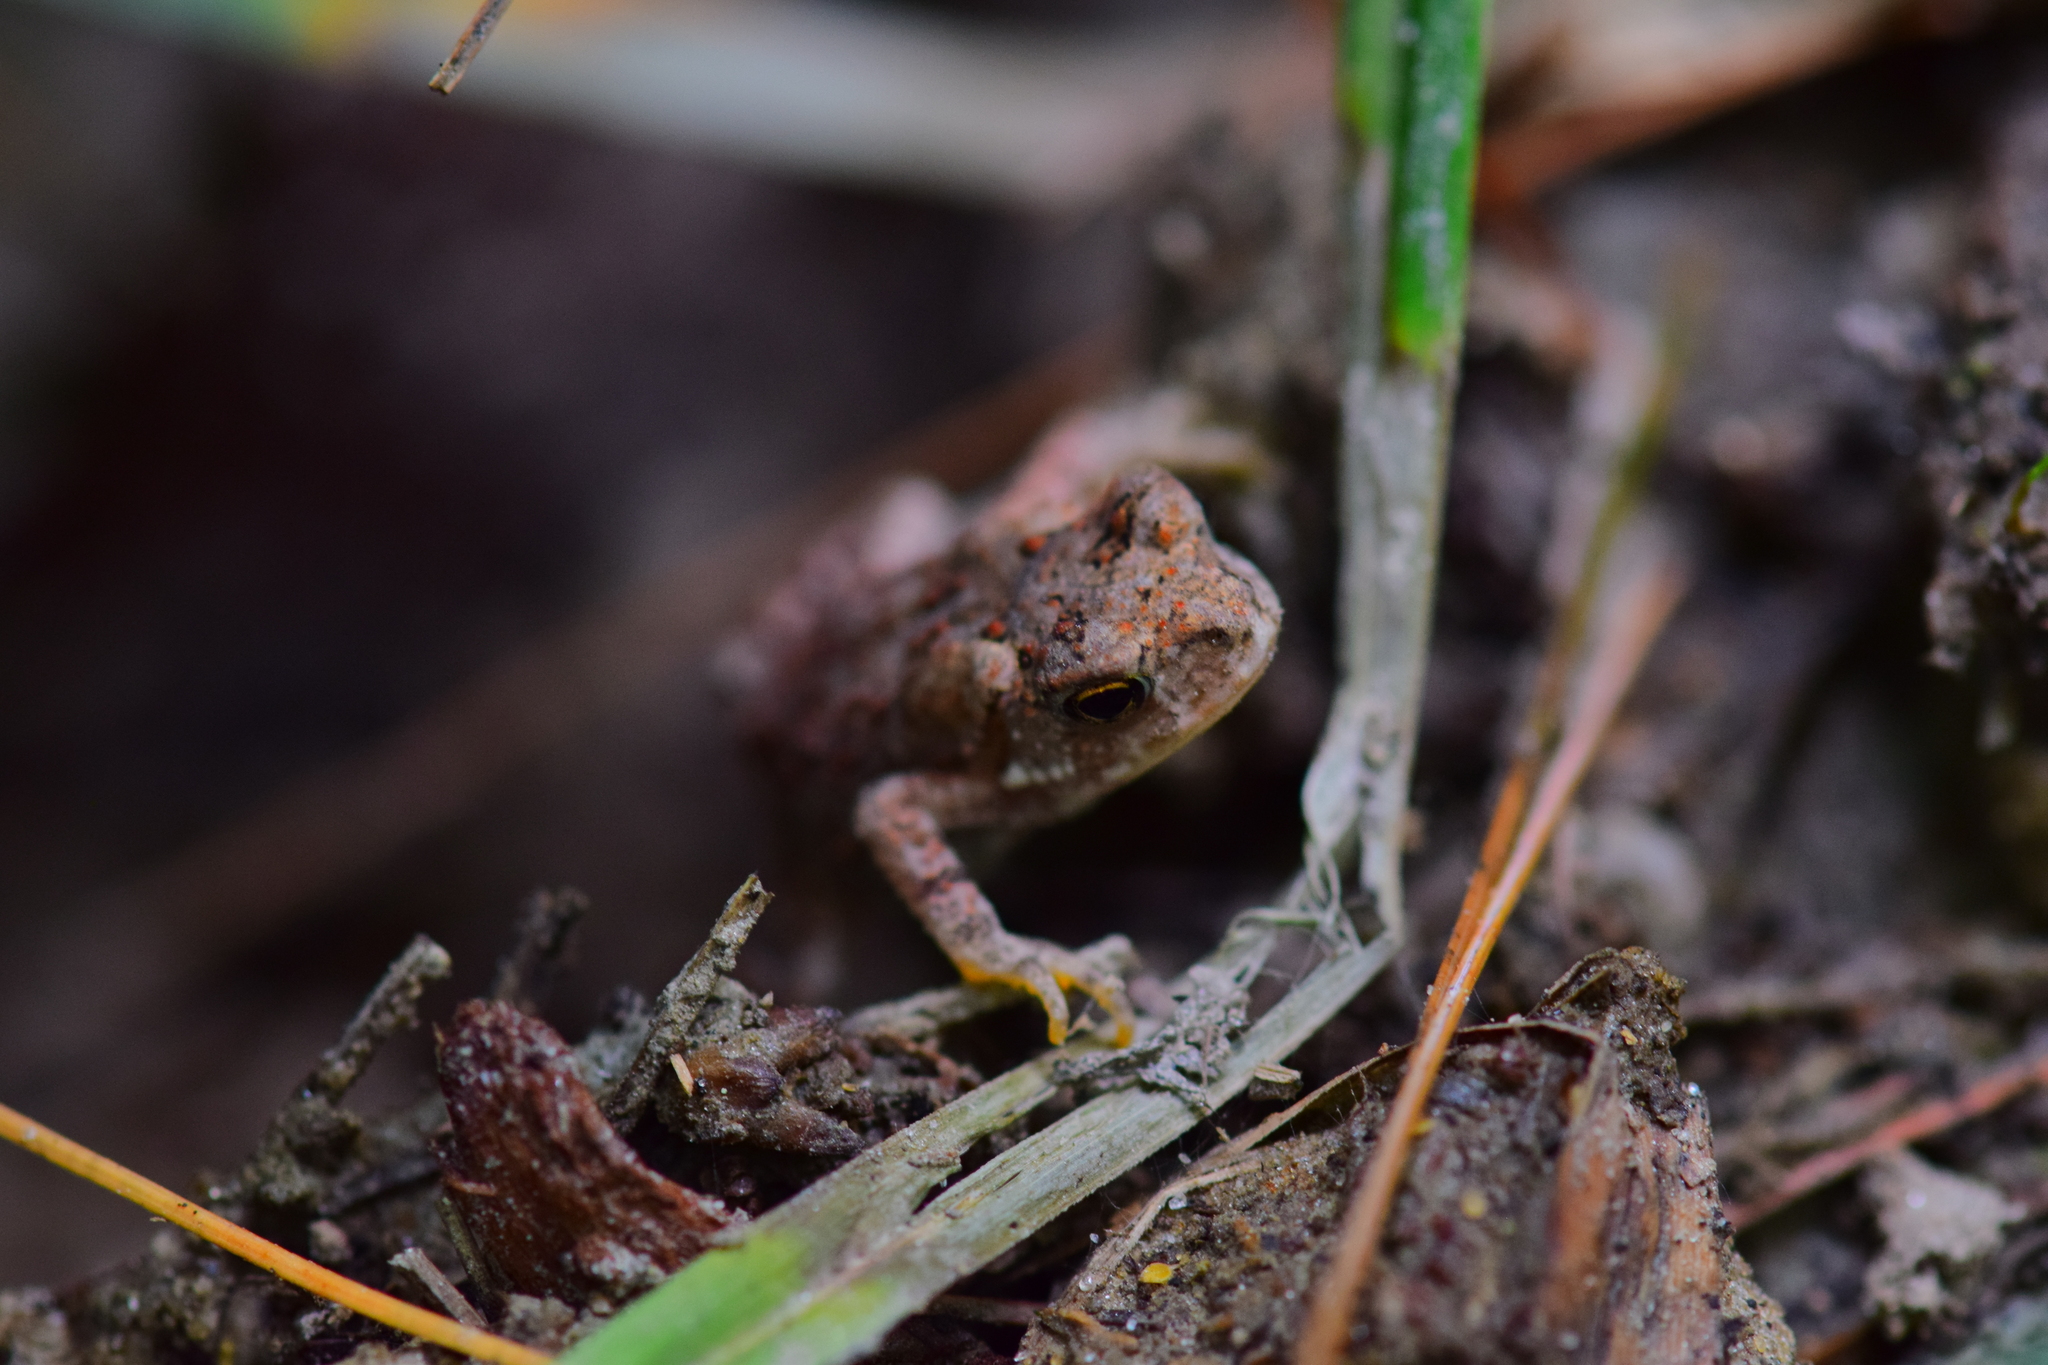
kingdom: Animalia
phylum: Chordata
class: Amphibia
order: Anura
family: Bufonidae
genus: Anaxyrus
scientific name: Anaxyrus americanus
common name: American toad
